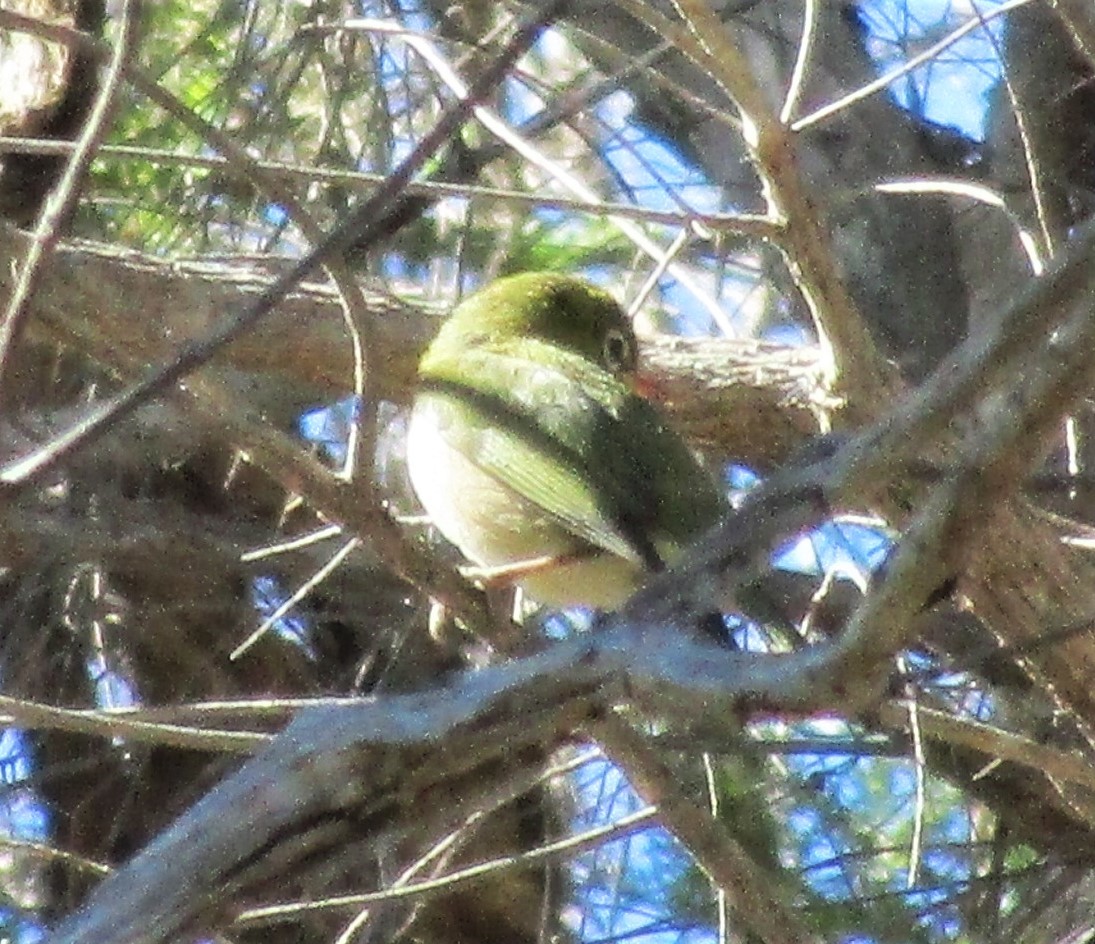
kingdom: Animalia
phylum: Chordata
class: Aves
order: Passeriformes
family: Zosteropidae
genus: Zosterops
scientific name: Zosterops lateralis
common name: Silvereye
